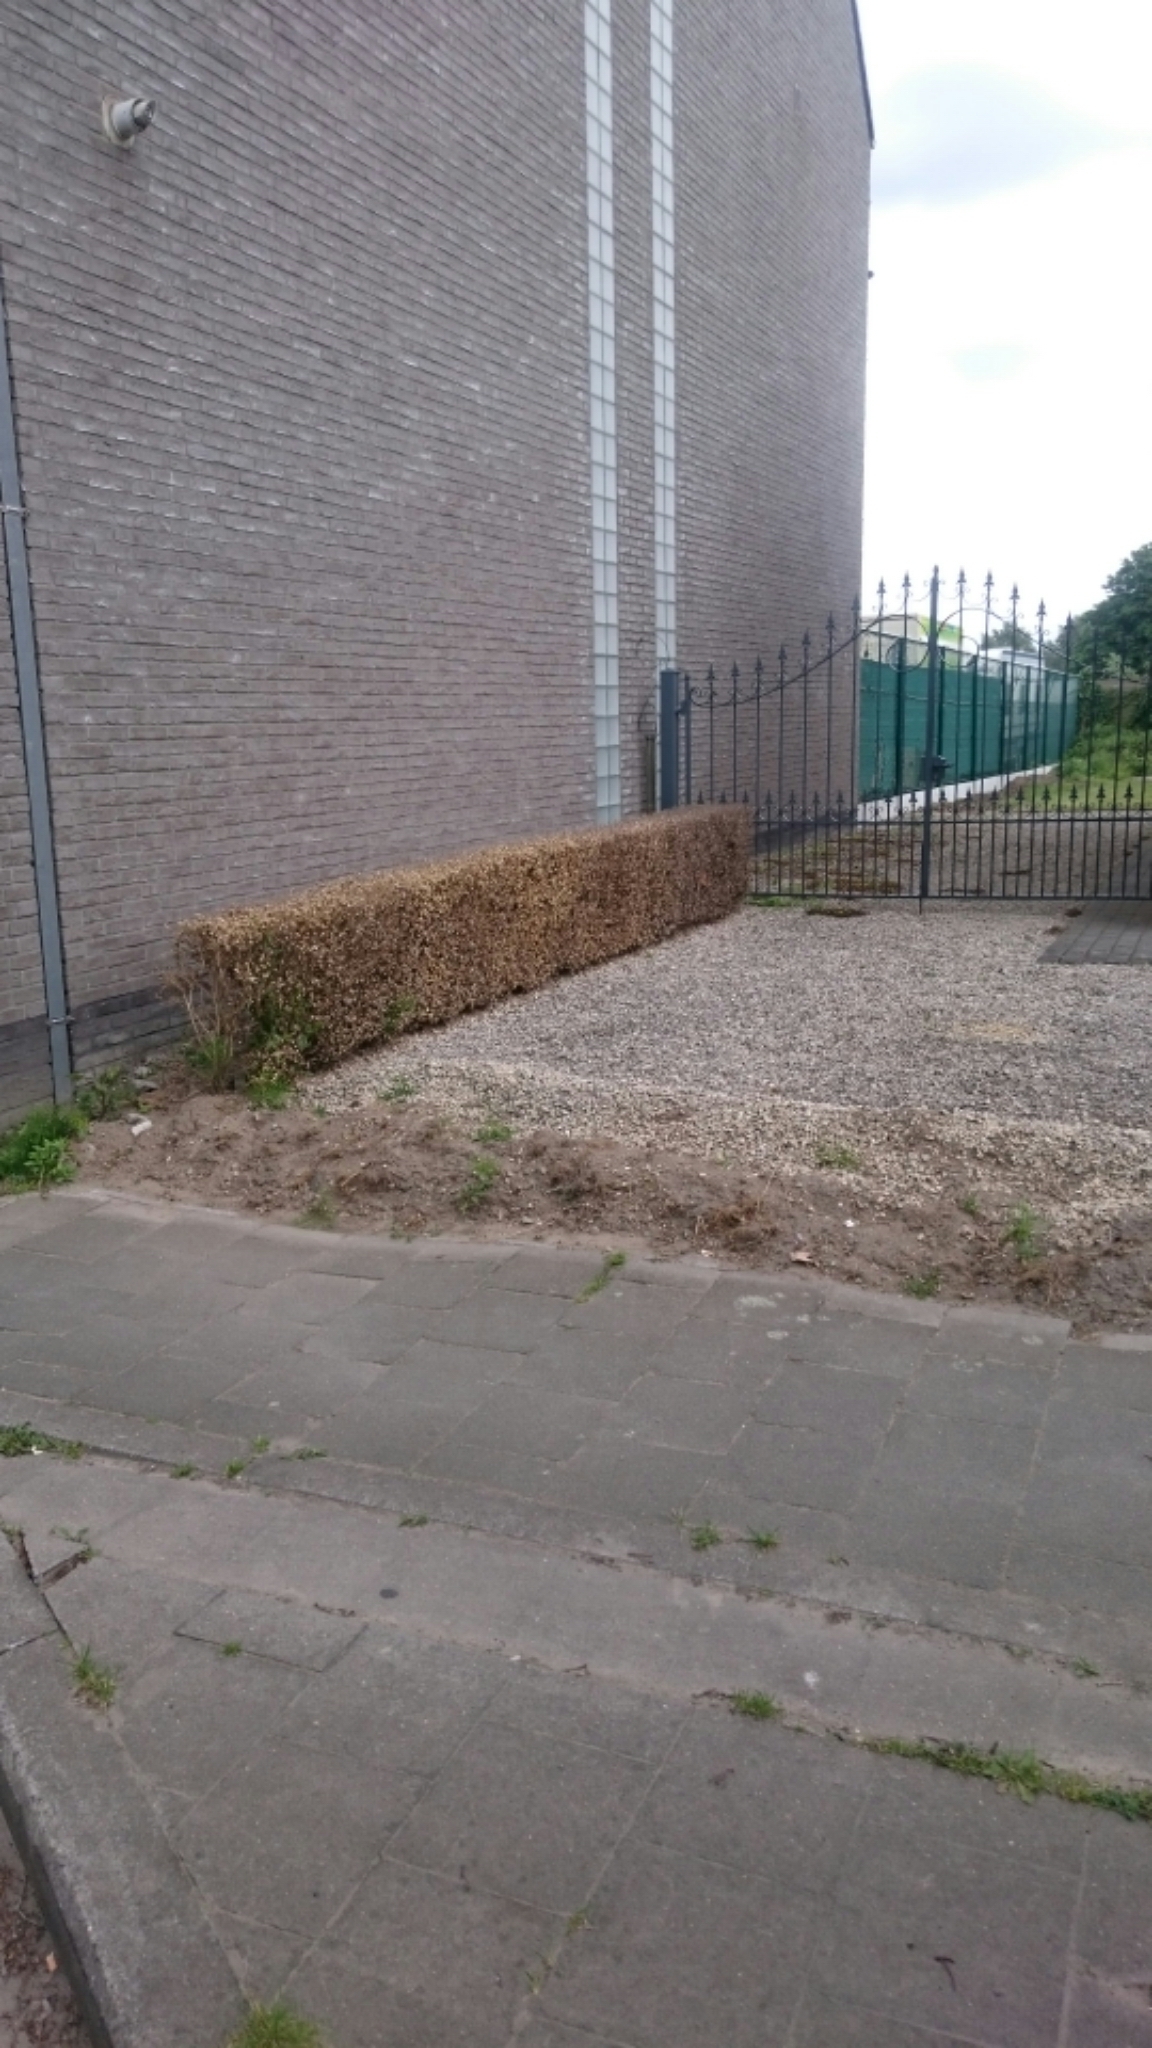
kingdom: Animalia
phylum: Arthropoda
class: Insecta
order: Lepidoptera
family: Crambidae
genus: Cydalima
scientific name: Cydalima perspectalis
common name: Box tree moth
